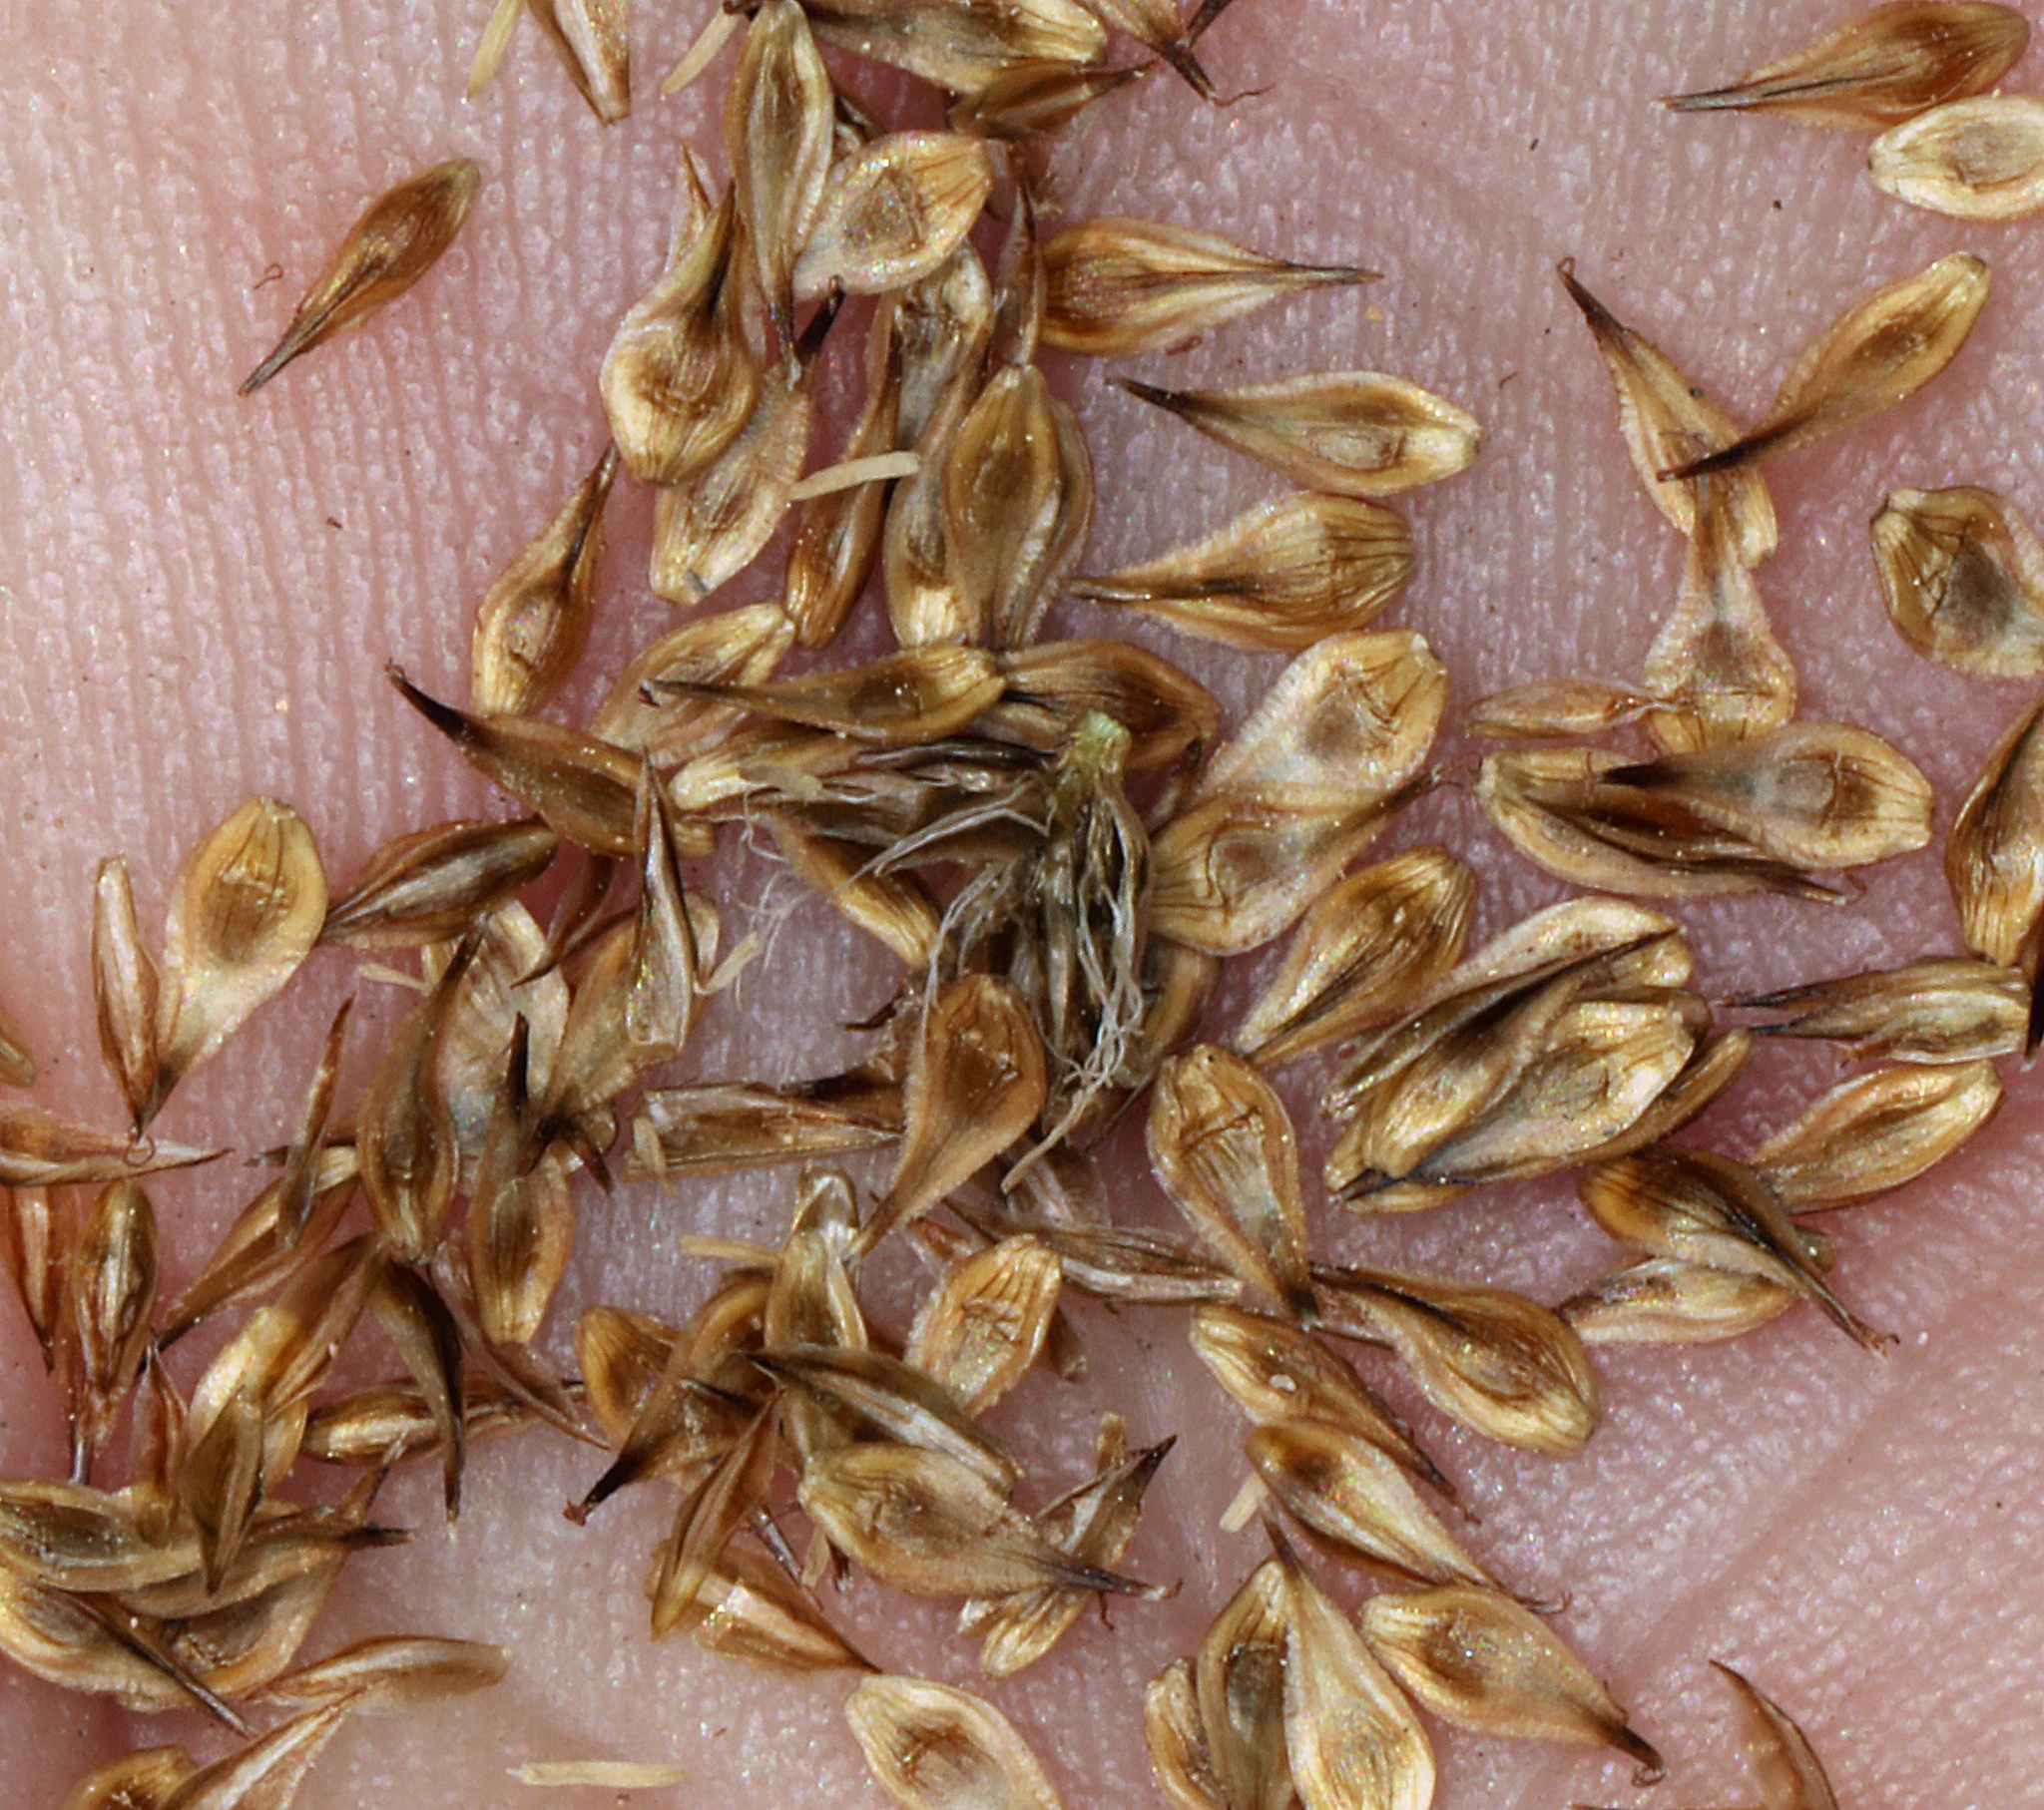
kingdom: Plantae
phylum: Tracheophyta
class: Liliopsida
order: Poales
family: Cyperaceae
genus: Carex
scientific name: Carex athrostachya
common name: Slenderbeak sedge
